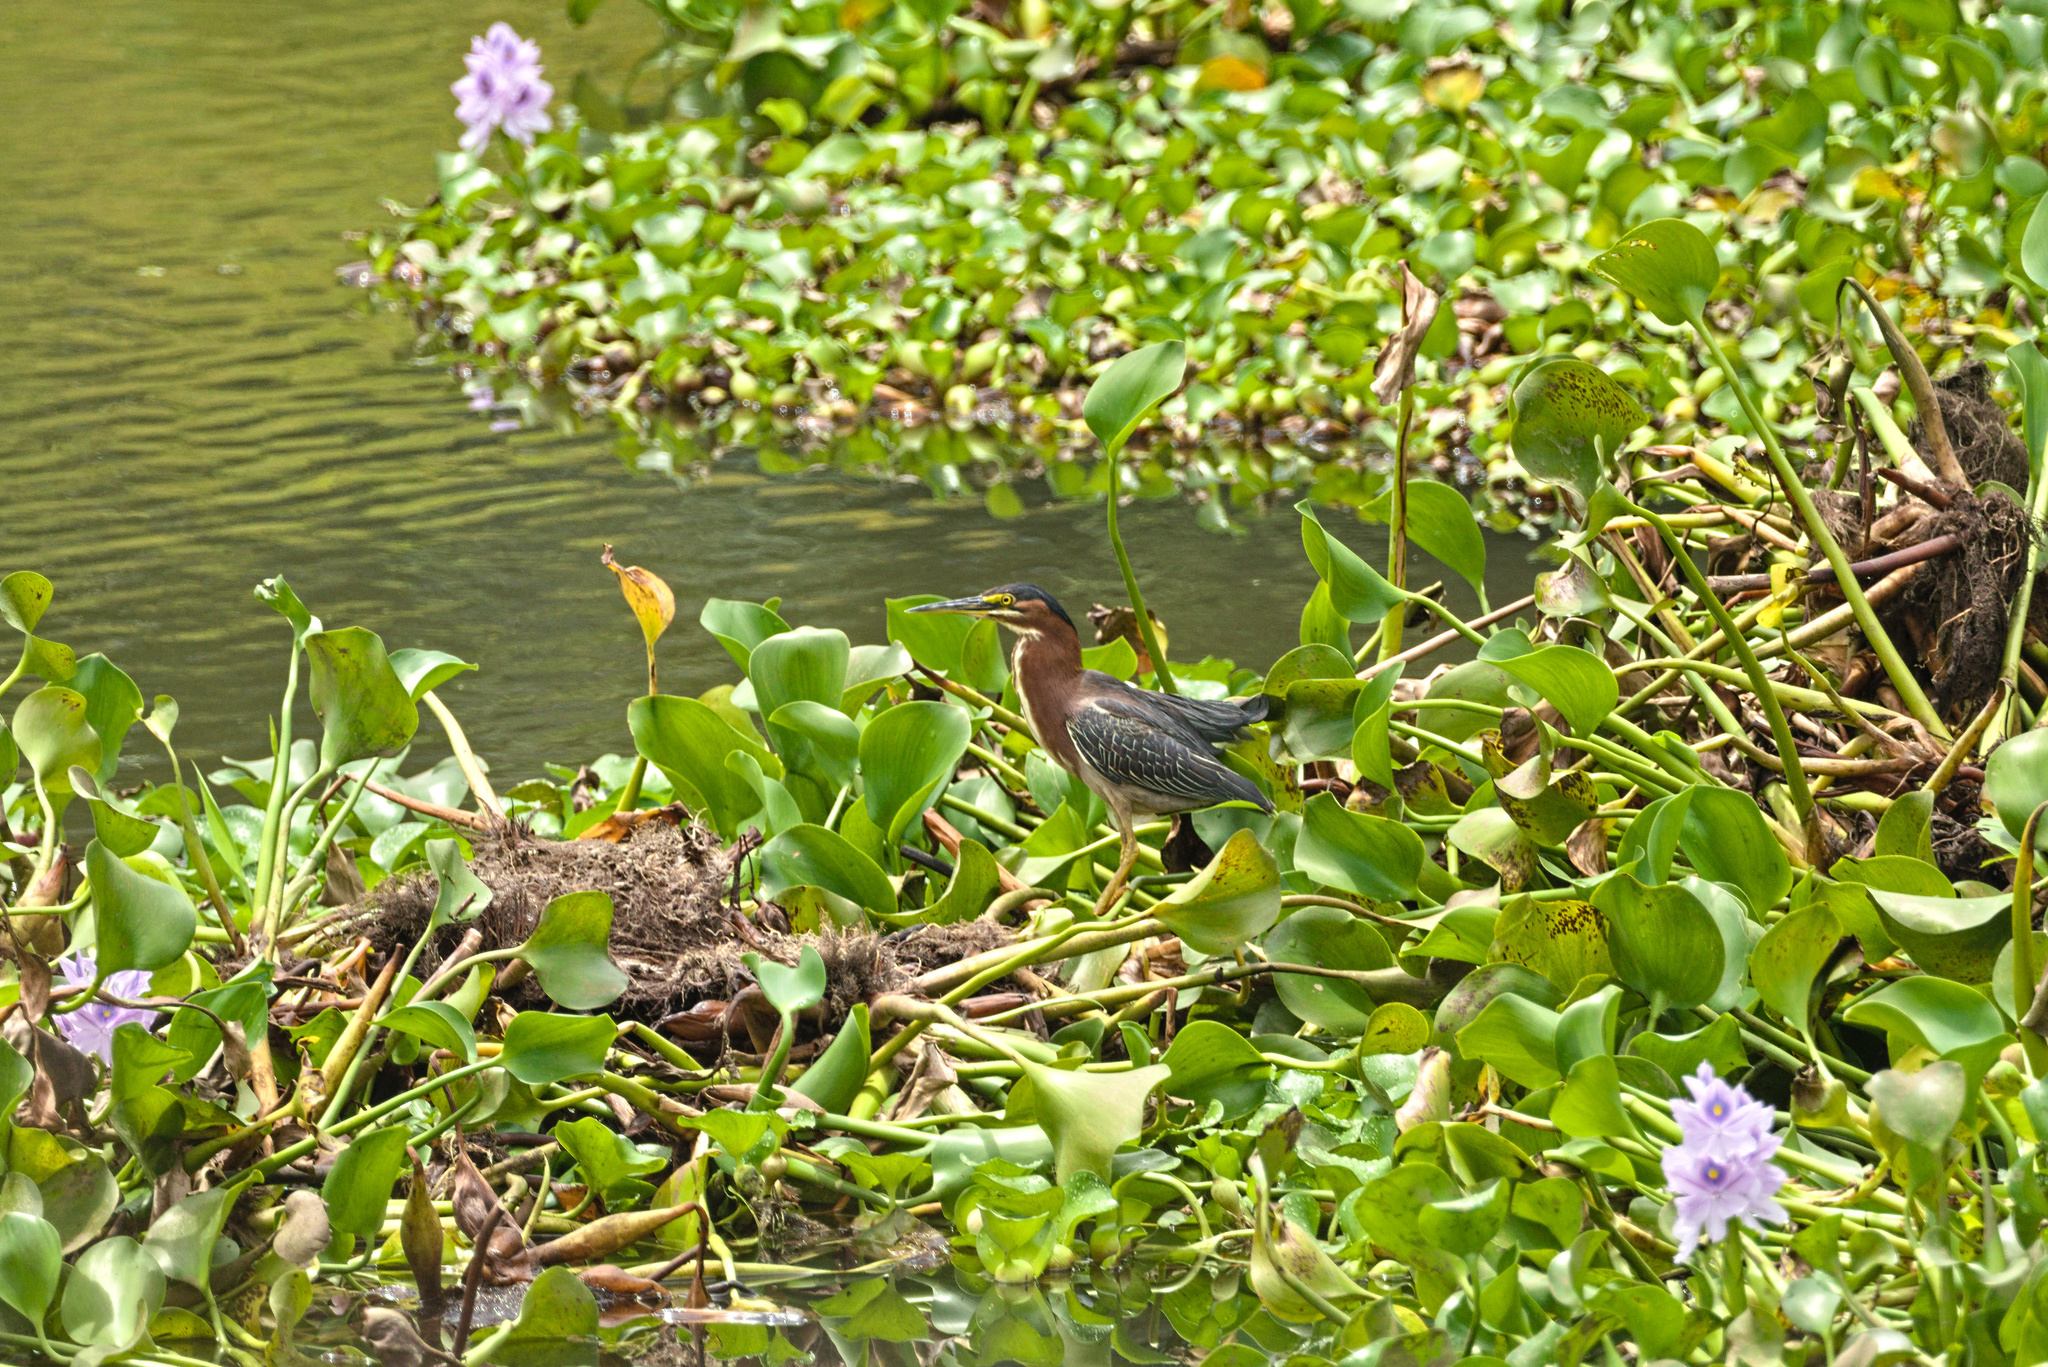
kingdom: Animalia
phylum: Chordata
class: Aves
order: Pelecaniformes
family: Ardeidae
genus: Butorides
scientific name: Butorides virescens
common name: Green heron
